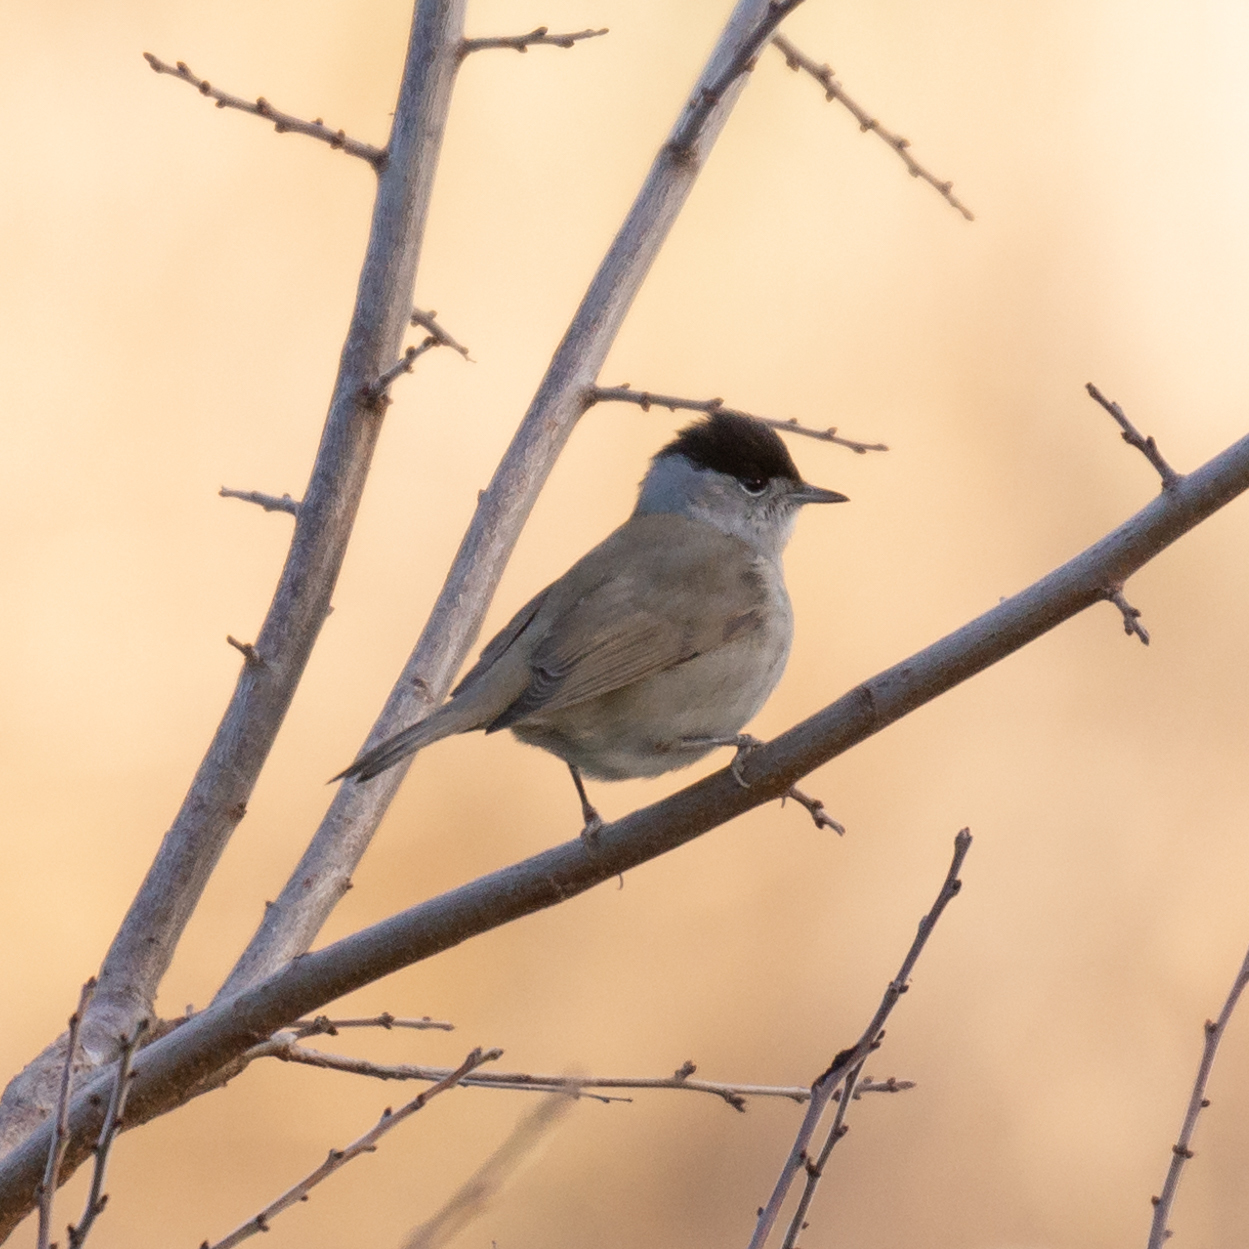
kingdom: Animalia
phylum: Chordata
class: Aves
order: Passeriformes
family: Sylviidae
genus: Sylvia
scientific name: Sylvia atricapilla
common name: Eurasian blackcap
